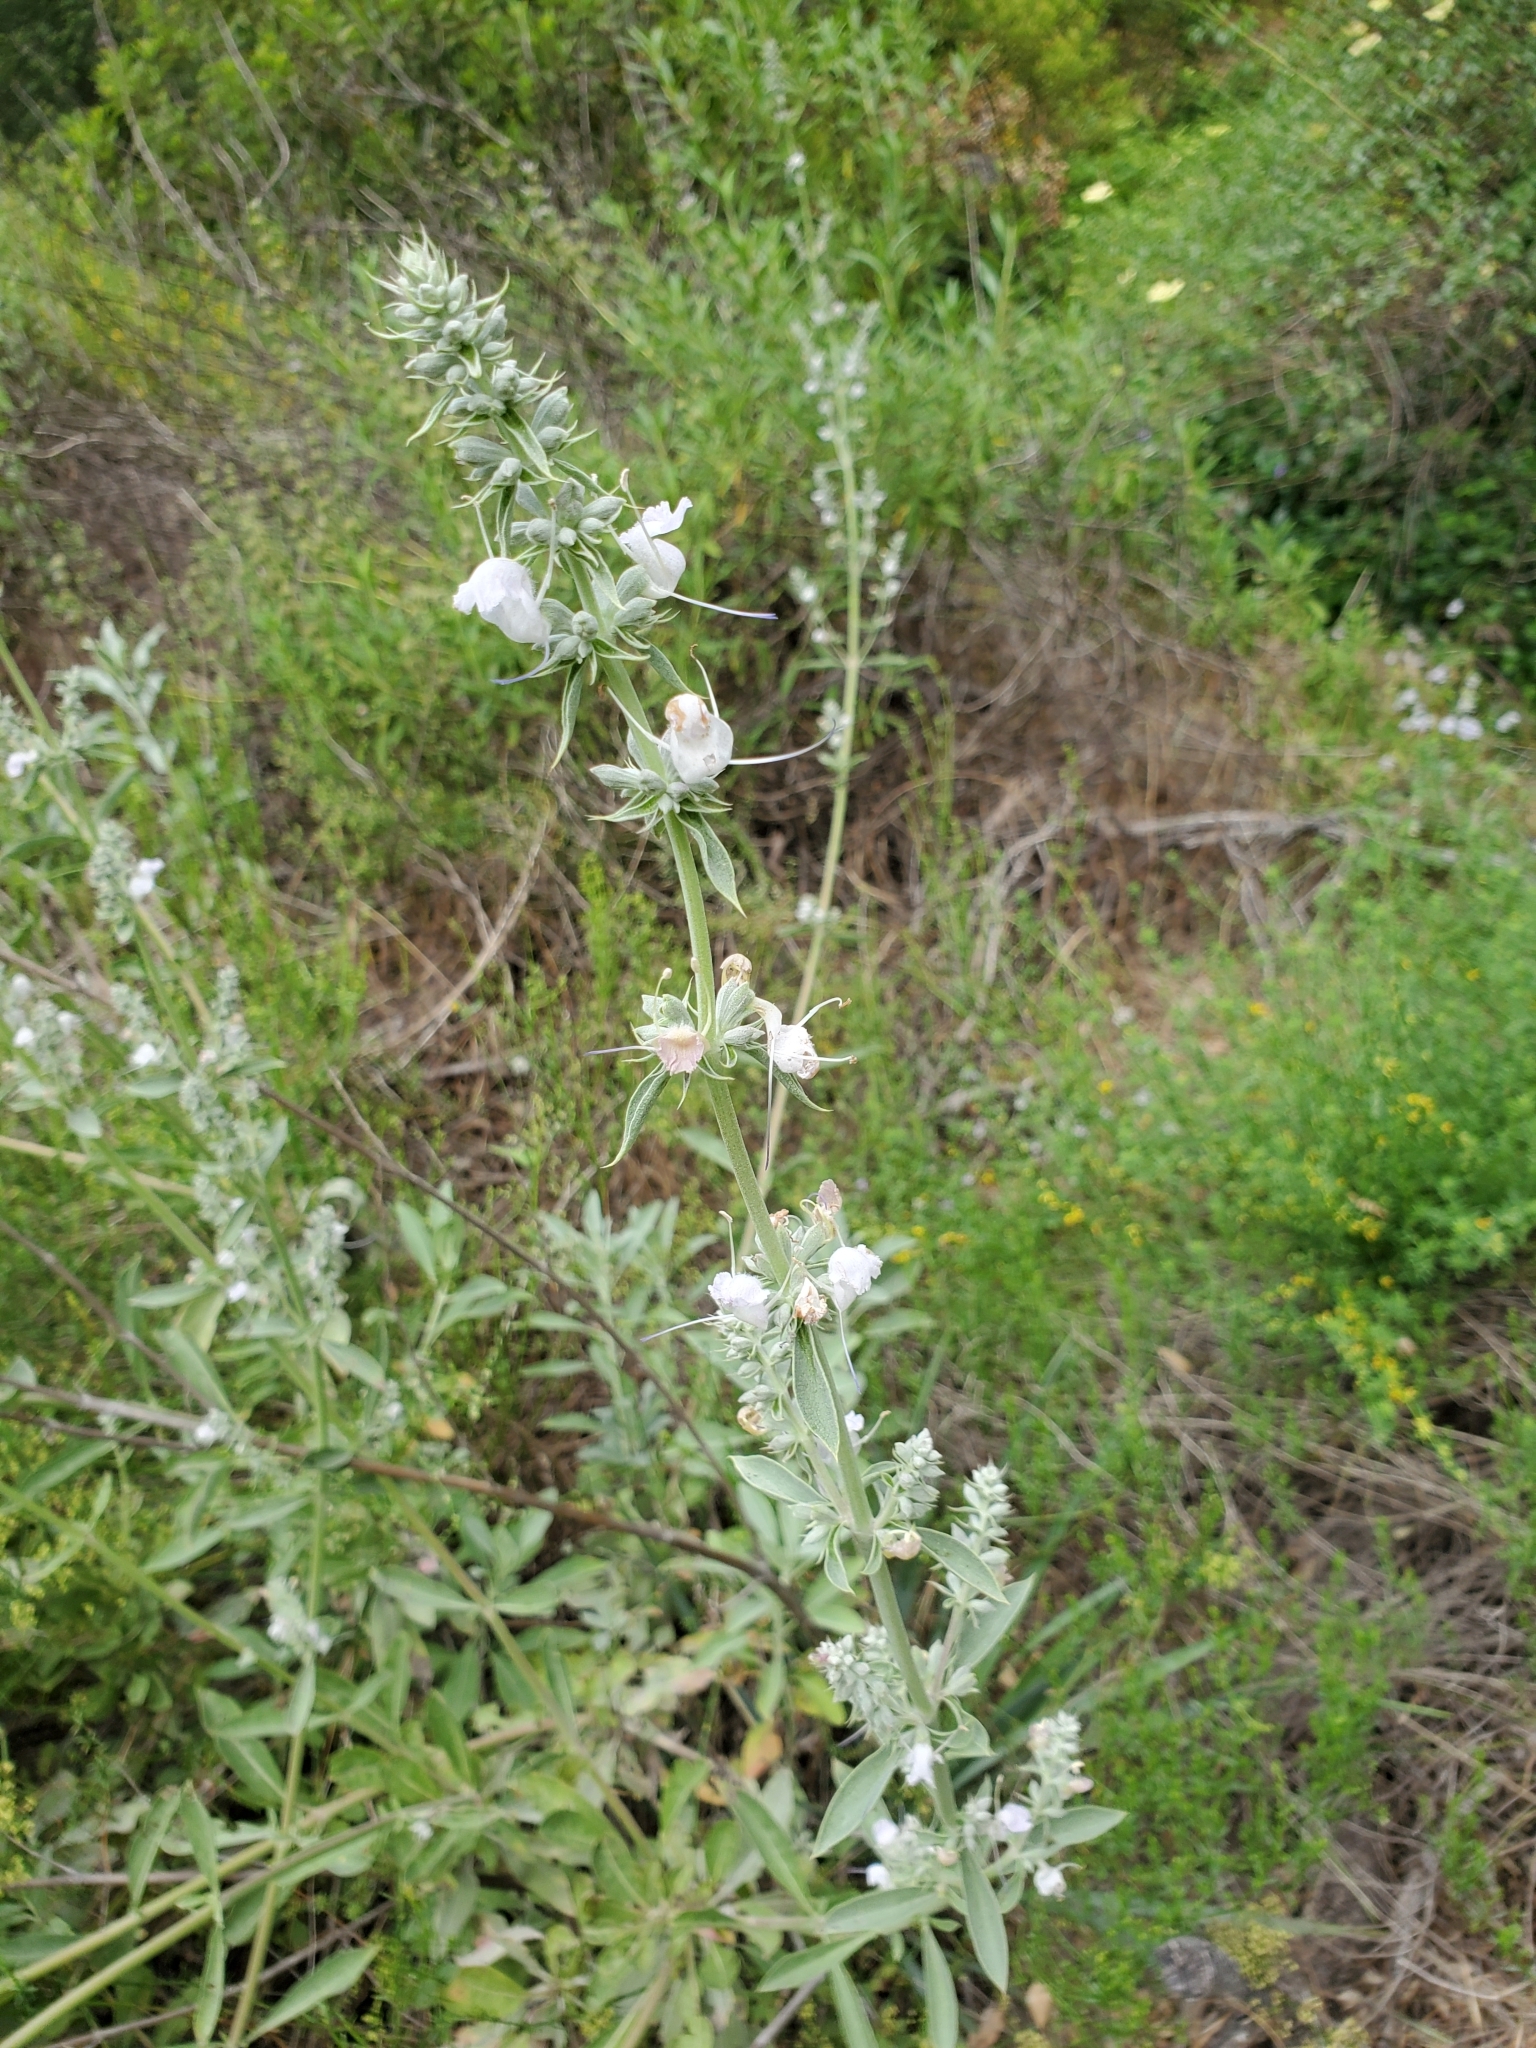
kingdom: Plantae
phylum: Tracheophyta
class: Magnoliopsida
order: Lamiales
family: Lamiaceae
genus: Salvia
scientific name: Salvia apiana
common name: White sage
